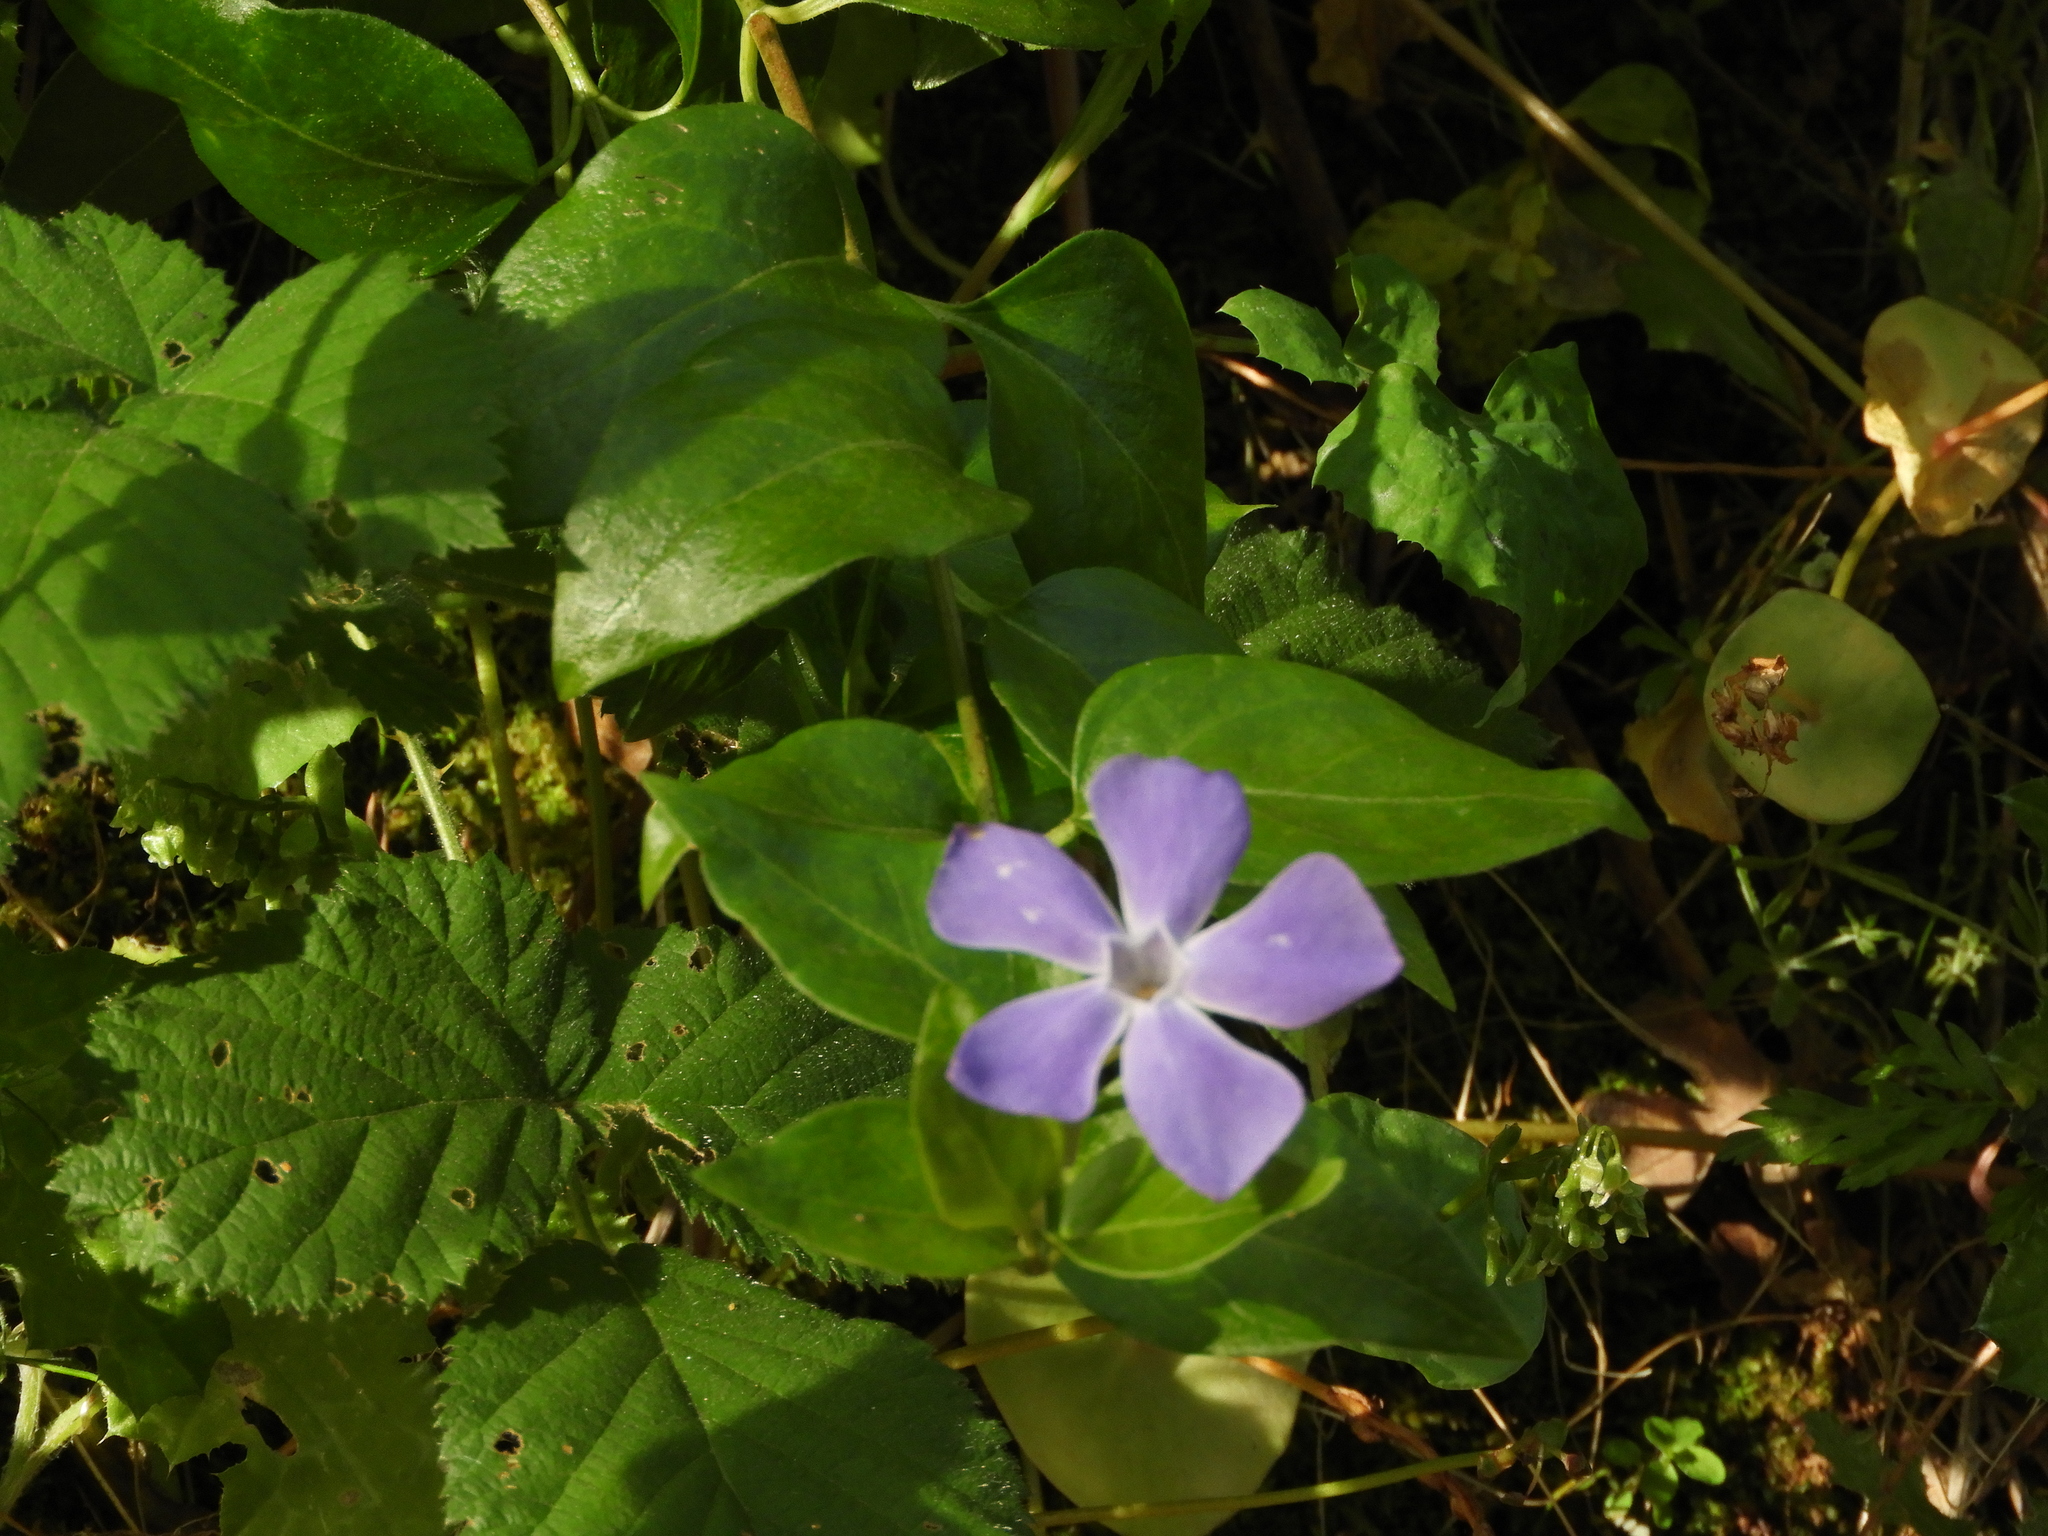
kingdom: Plantae
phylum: Tracheophyta
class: Magnoliopsida
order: Gentianales
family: Apocynaceae
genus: Vinca
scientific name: Vinca major
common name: Greater periwinkle
